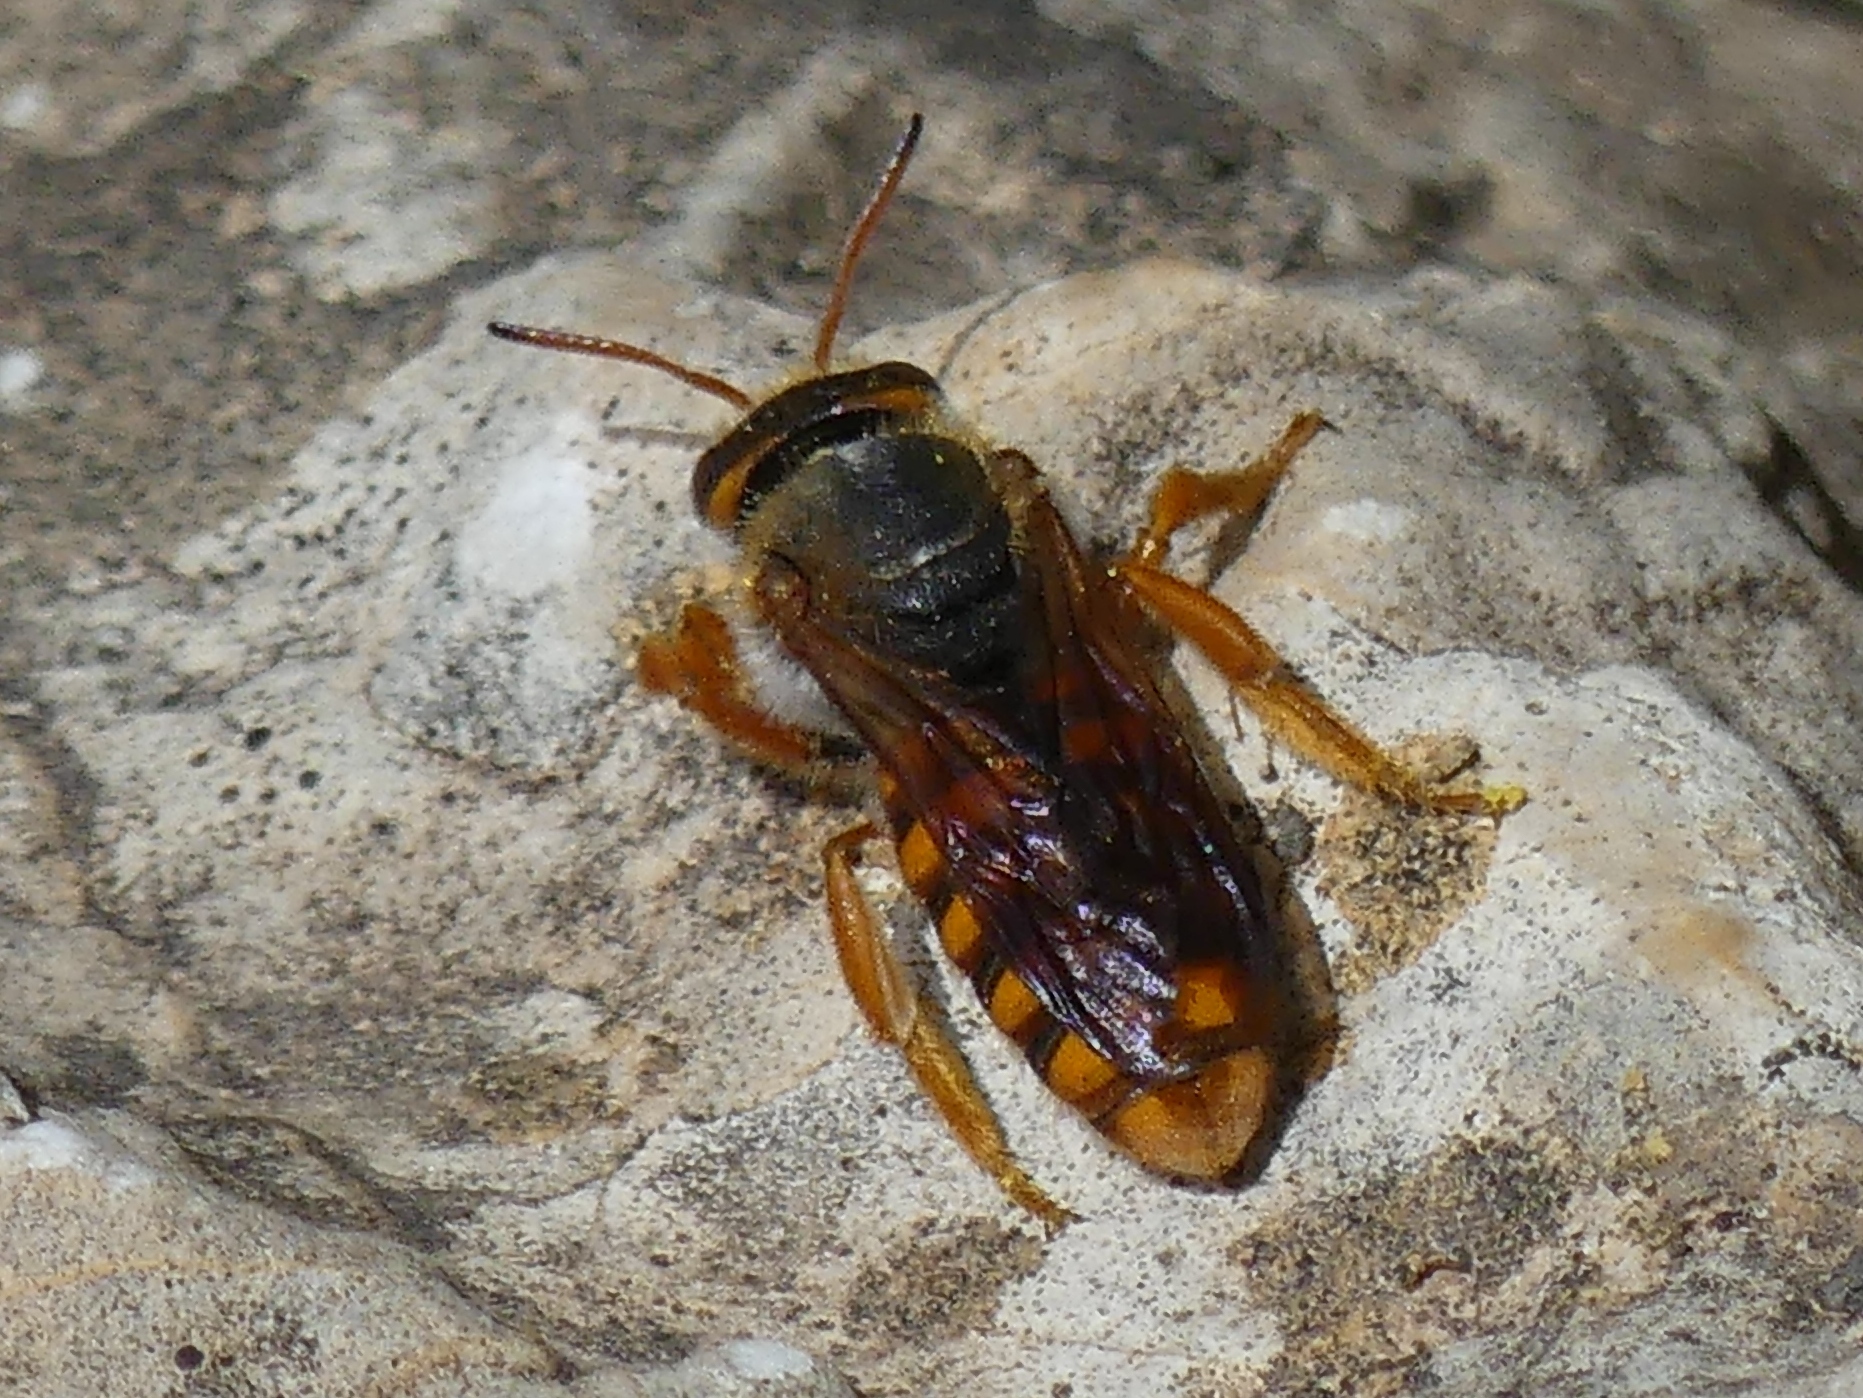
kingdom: Animalia
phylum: Arthropoda
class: Insecta
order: Hymenoptera
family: Megachilidae
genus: Rhodanthidium
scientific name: Rhodanthidium sticticum
